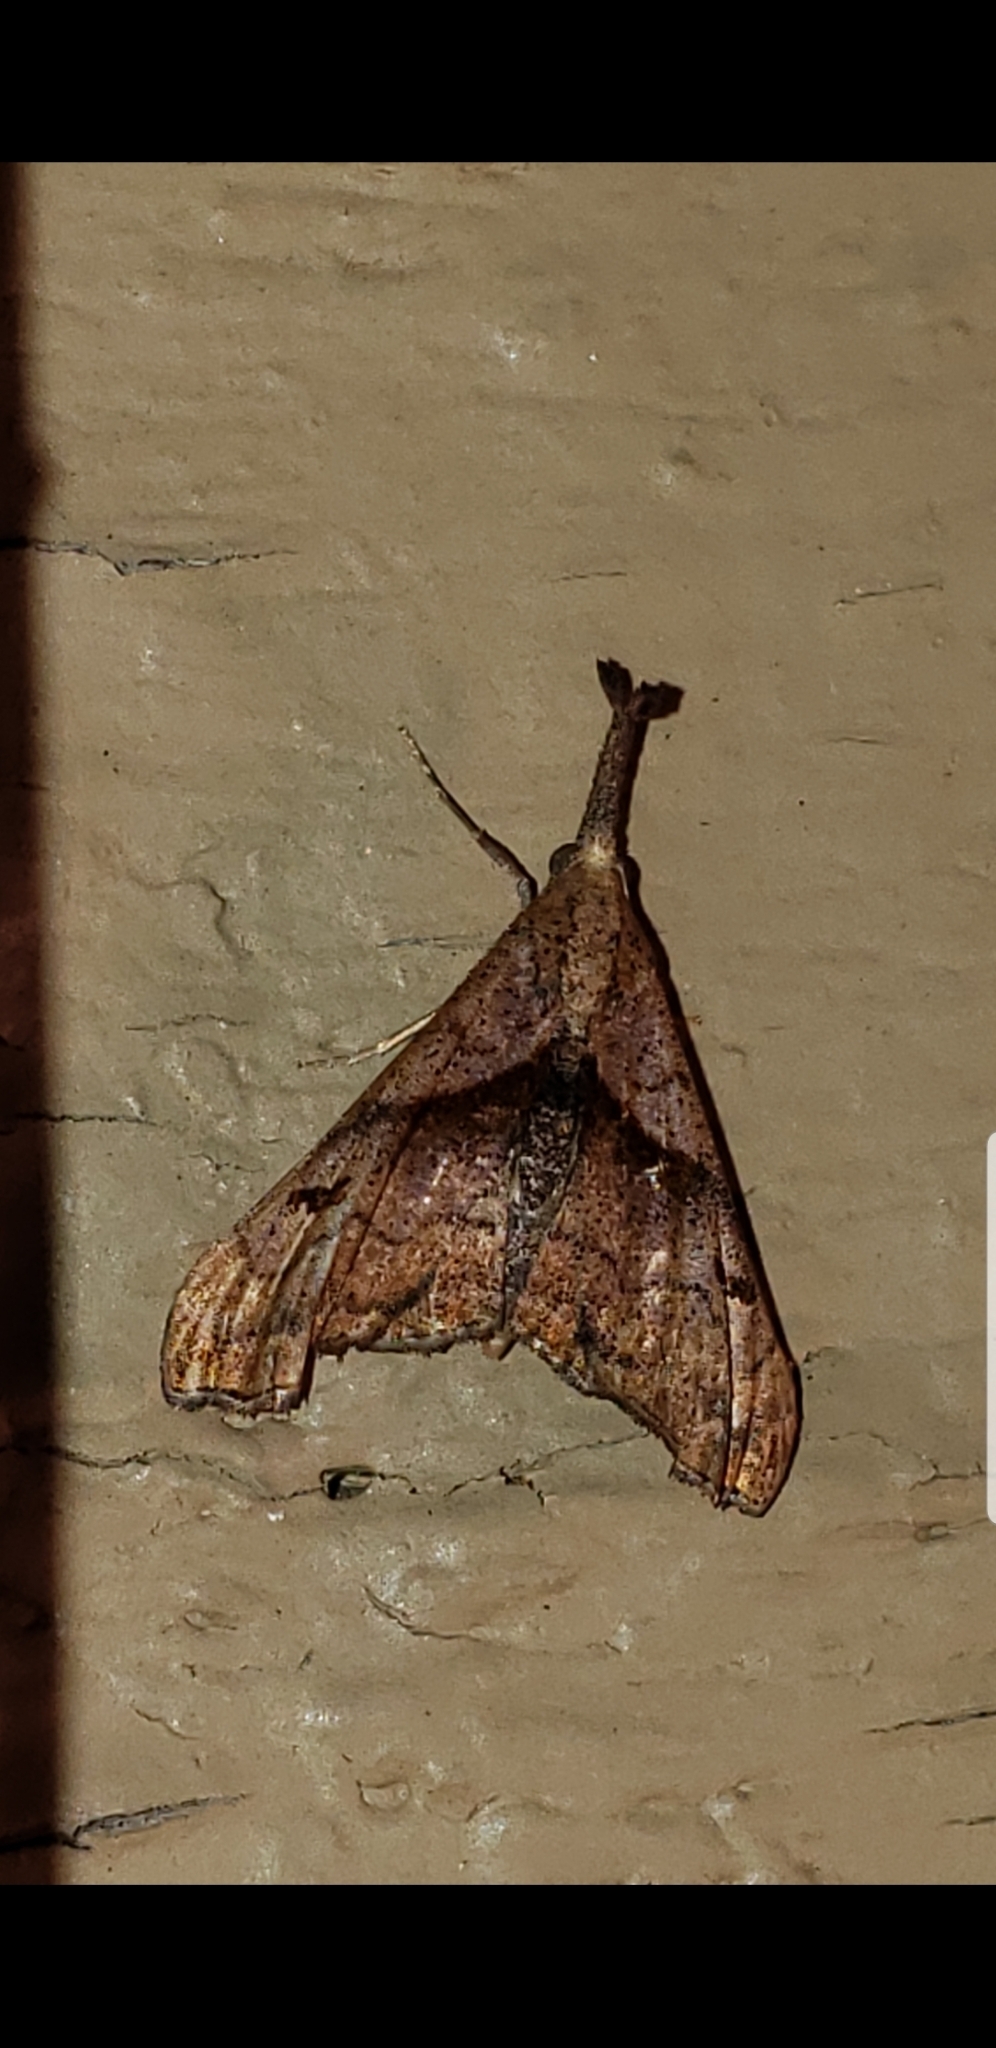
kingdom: Animalia
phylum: Arthropoda
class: Insecta
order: Lepidoptera
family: Erebidae
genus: Palthis
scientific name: Palthis angulalis
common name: Dark-spotted palthis moth
